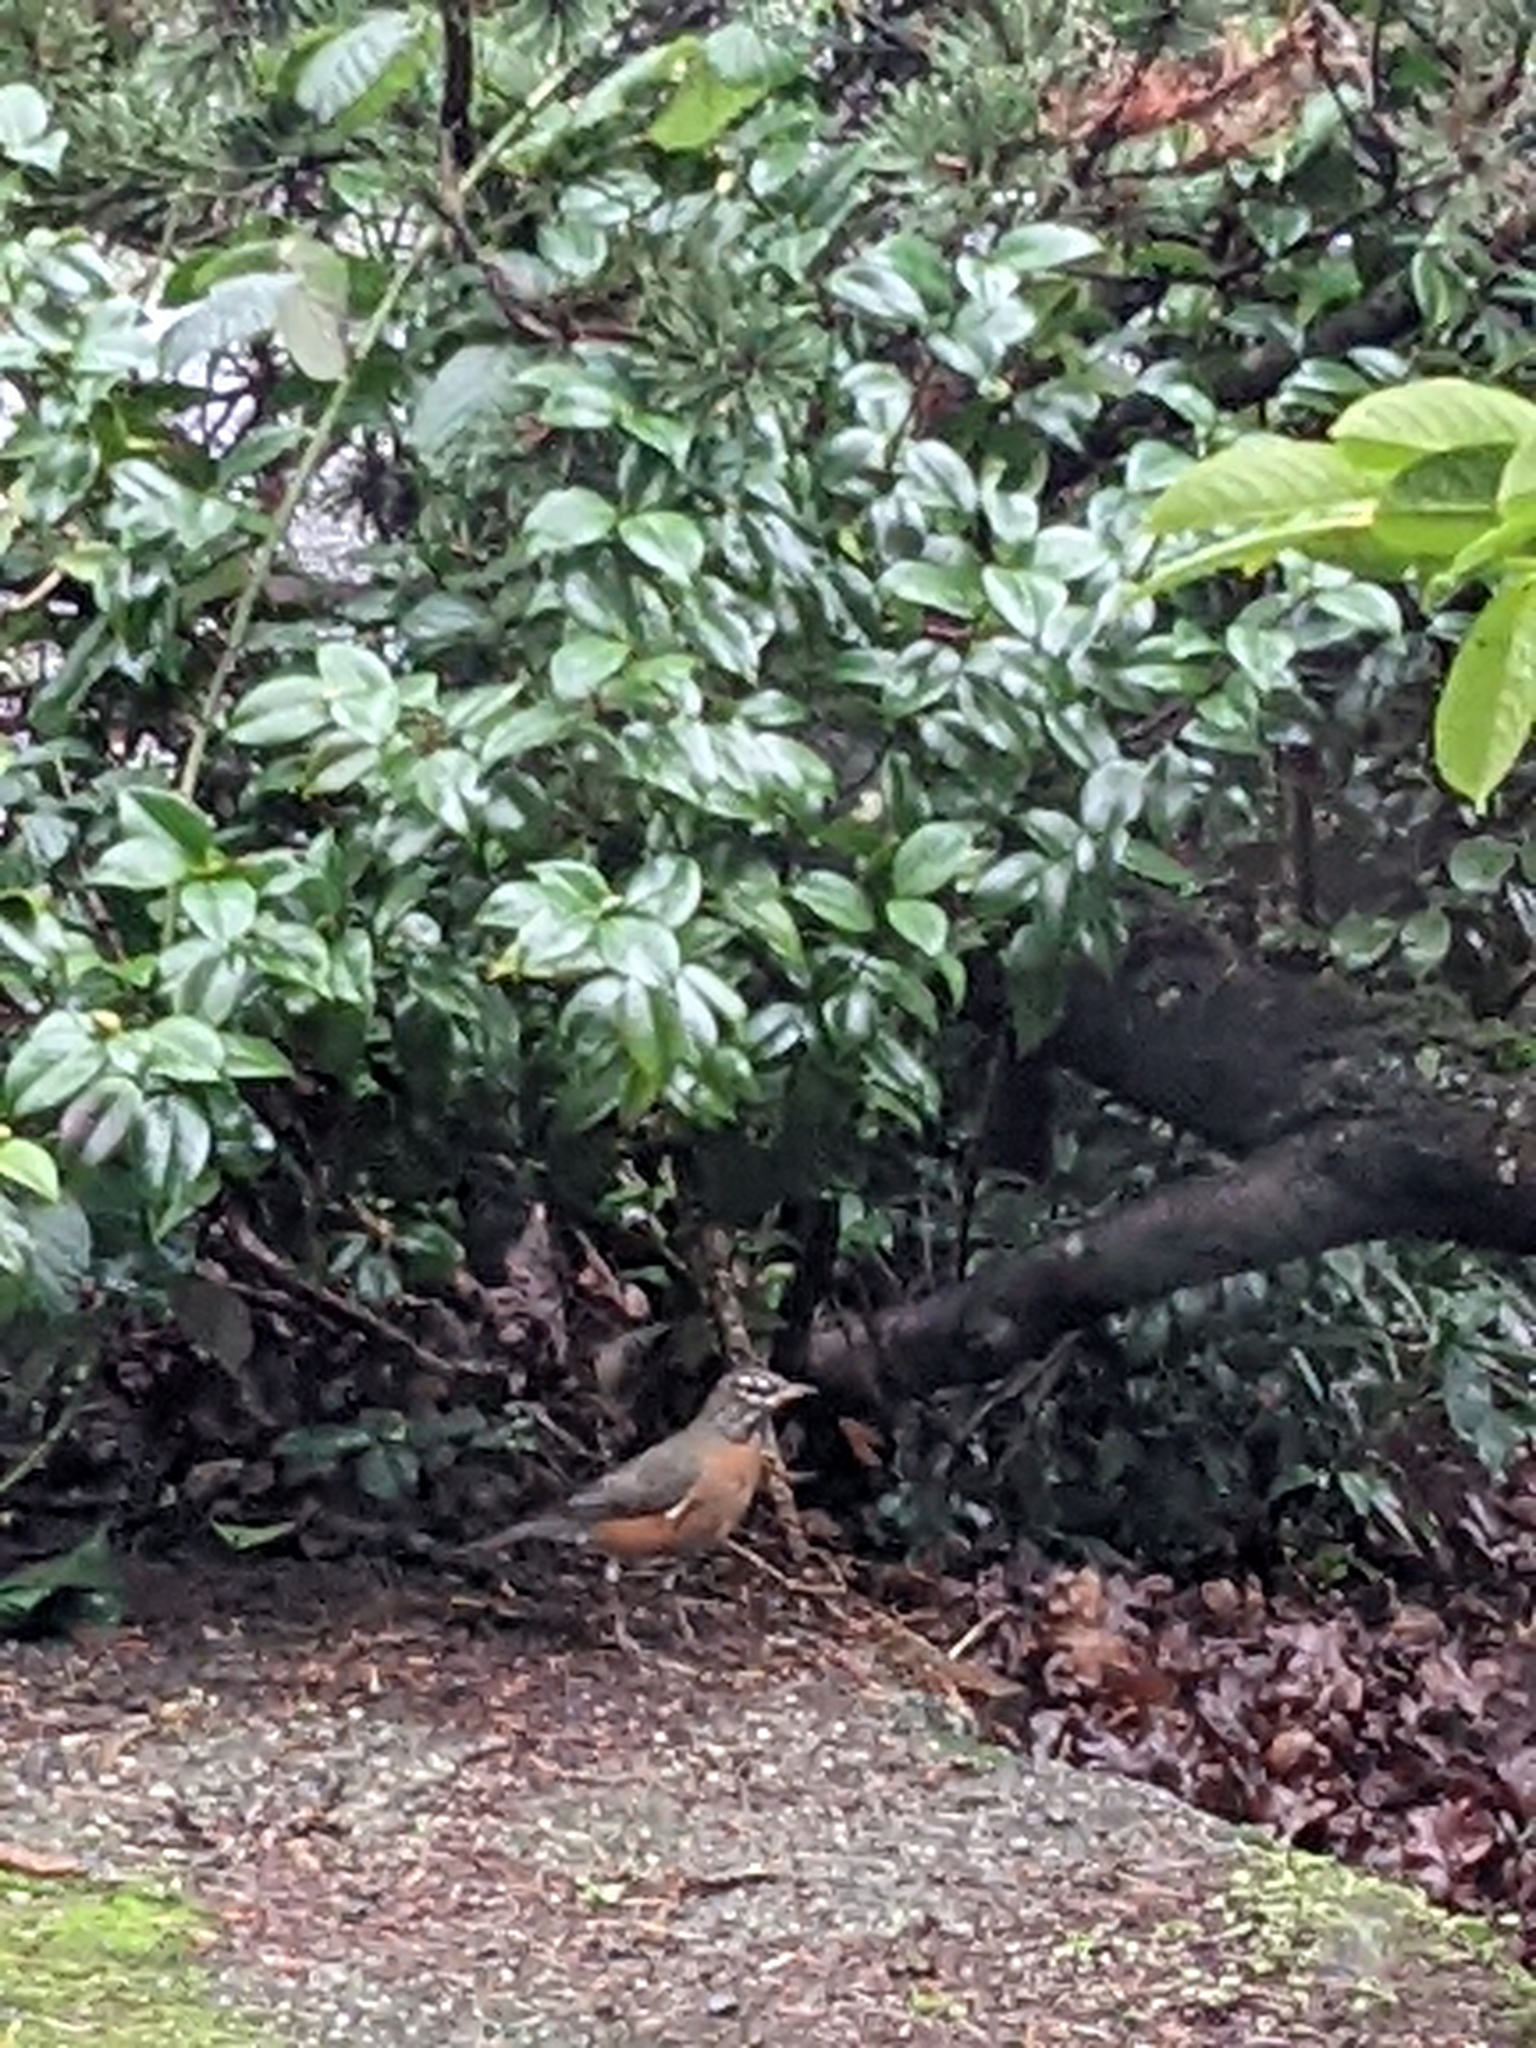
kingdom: Animalia
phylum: Chordata
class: Aves
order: Passeriformes
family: Turdidae
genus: Turdus
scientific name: Turdus migratorius
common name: American robin
